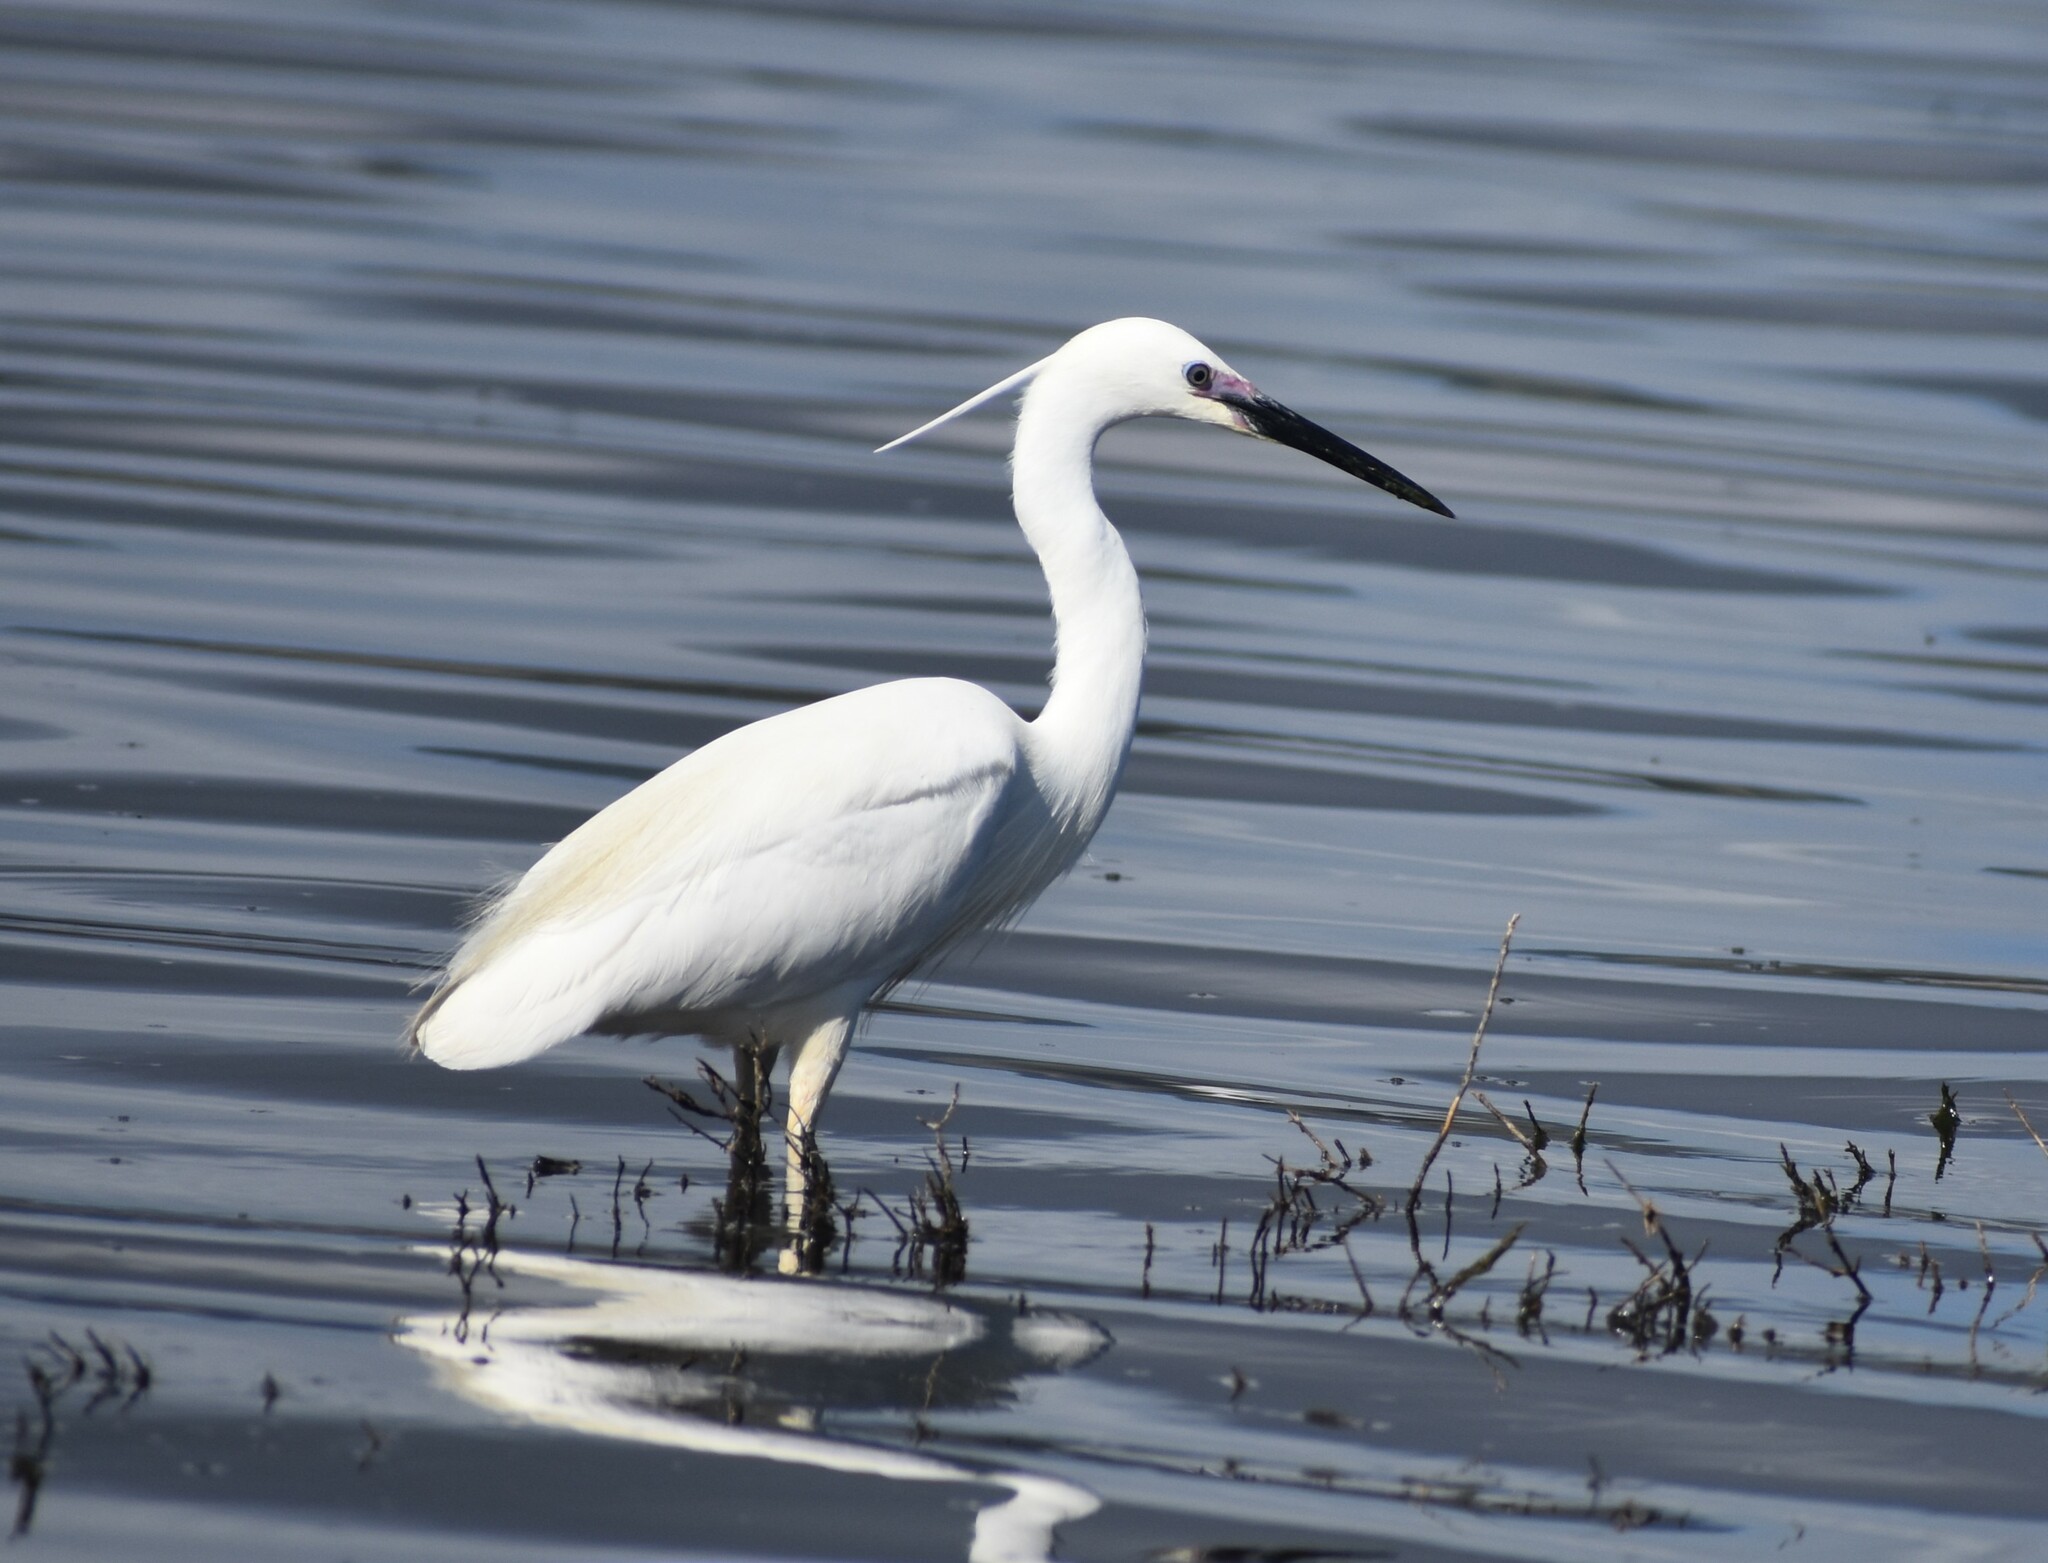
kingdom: Animalia
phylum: Chordata
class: Aves
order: Pelecaniformes
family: Ardeidae
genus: Egretta
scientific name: Egretta garzetta
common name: Little egret
